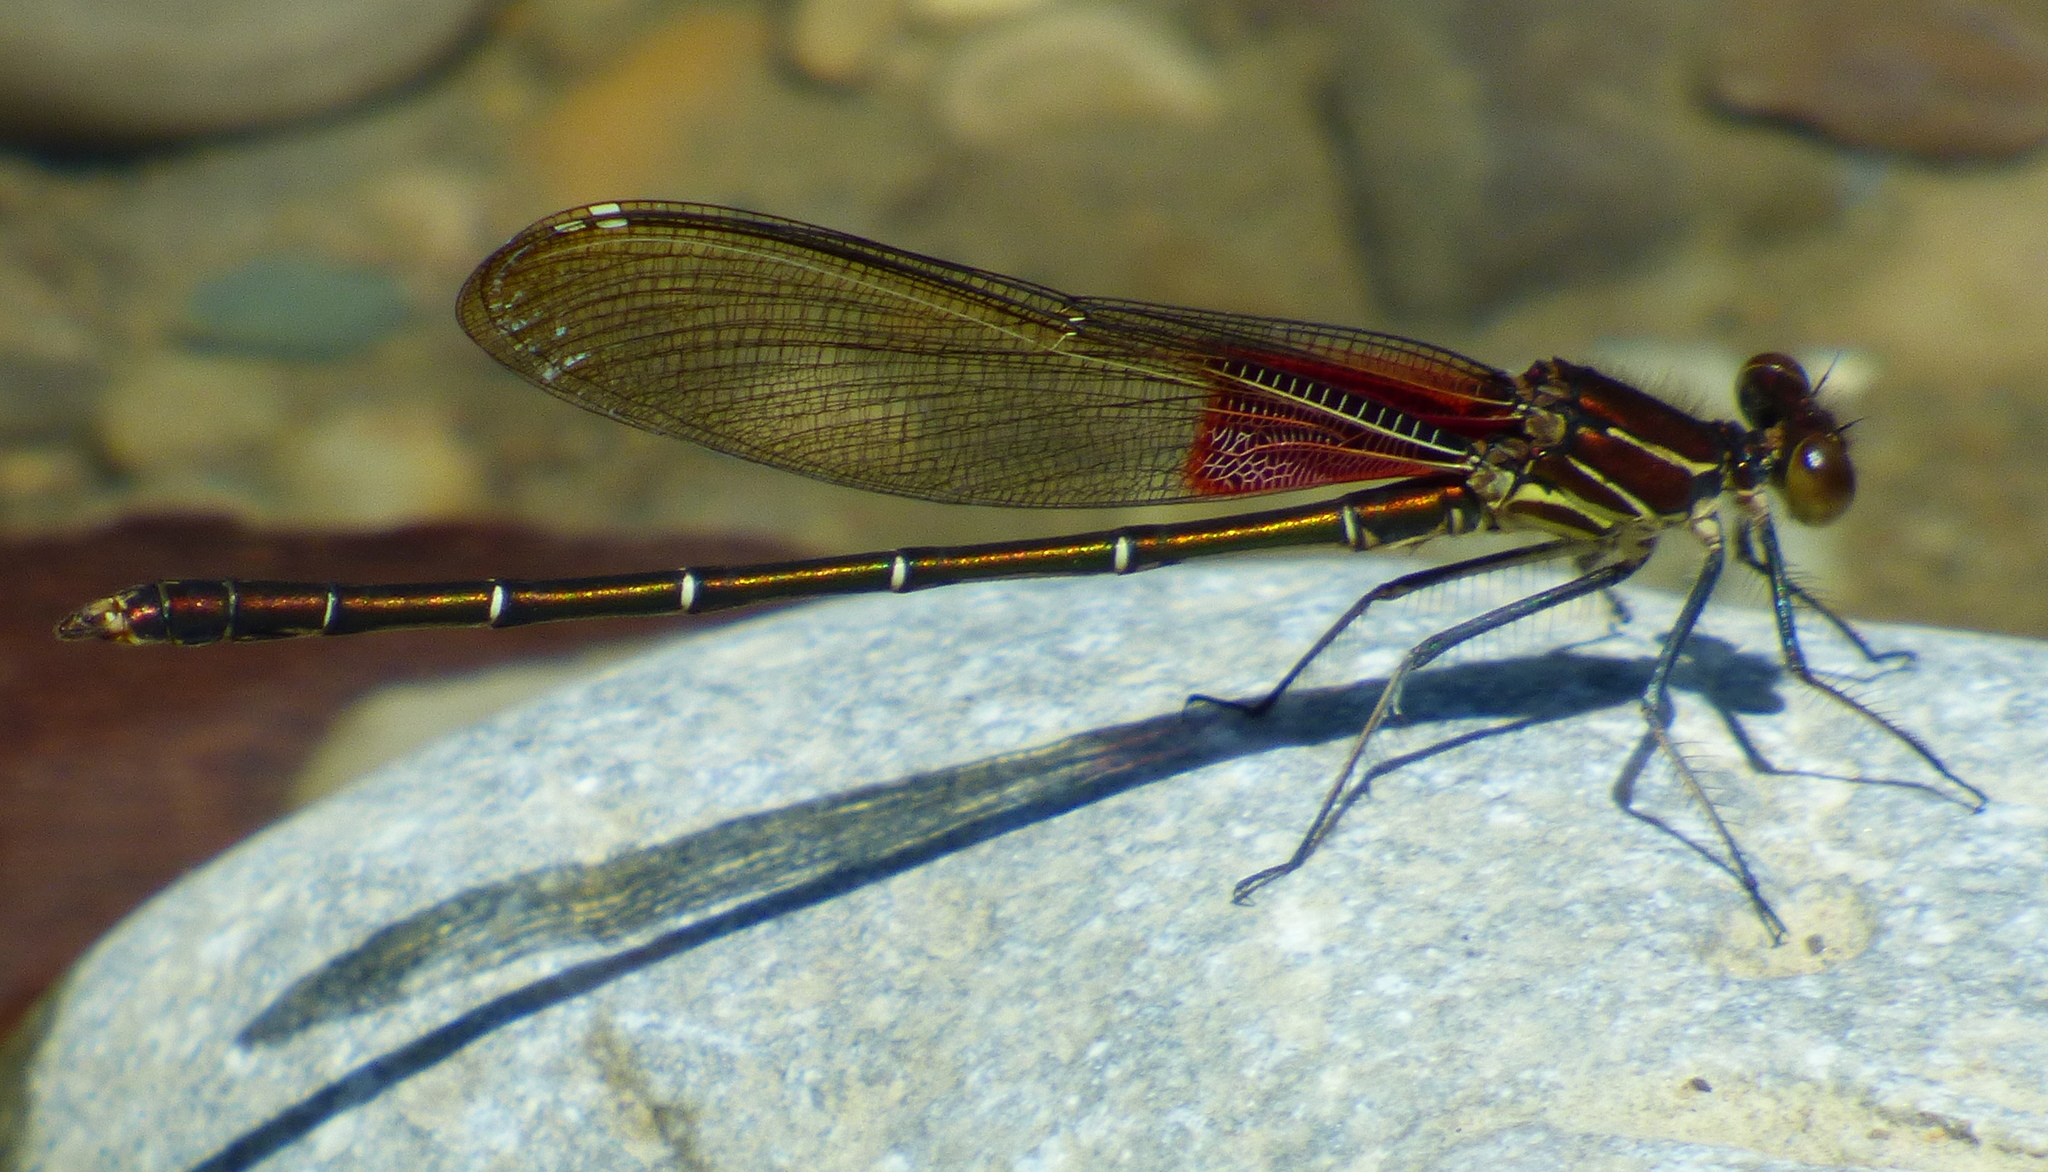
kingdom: Animalia
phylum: Arthropoda
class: Insecta
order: Odonata
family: Calopterygidae
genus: Hetaerina
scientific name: Hetaerina americana
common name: American rubyspot
